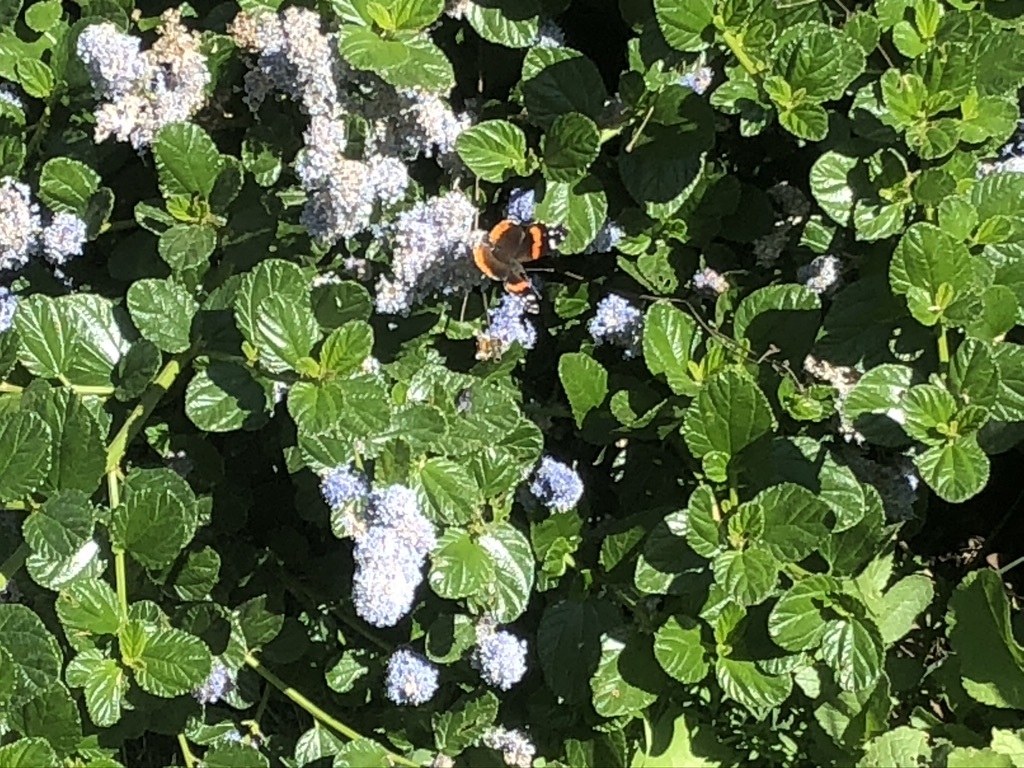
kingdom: Animalia
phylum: Arthropoda
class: Insecta
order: Lepidoptera
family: Nymphalidae
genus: Vanessa
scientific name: Vanessa atalanta
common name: Red admiral
